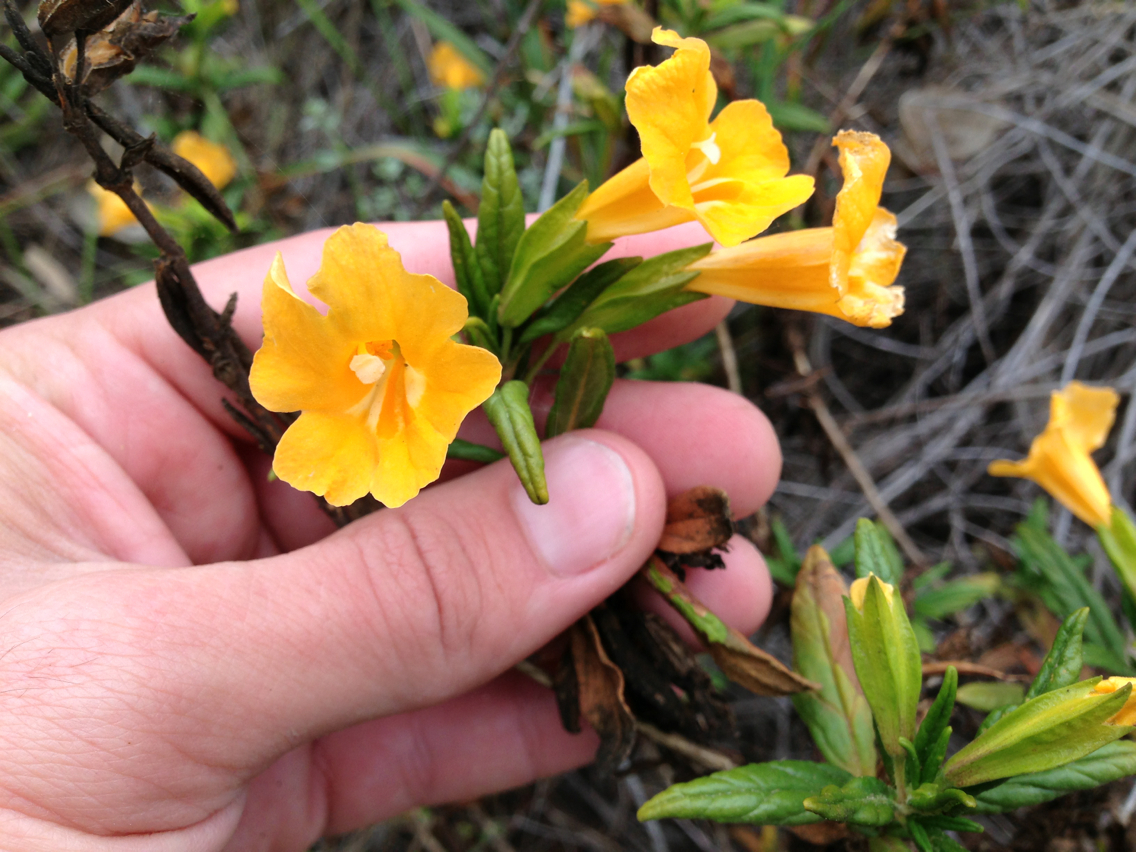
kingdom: Plantae
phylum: Tracheophyta
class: Magnoliopsida
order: Lamiales
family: Phrymaceae
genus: Diplacus
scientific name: Diplacus aurantiacus
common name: Bush monkey-flower
